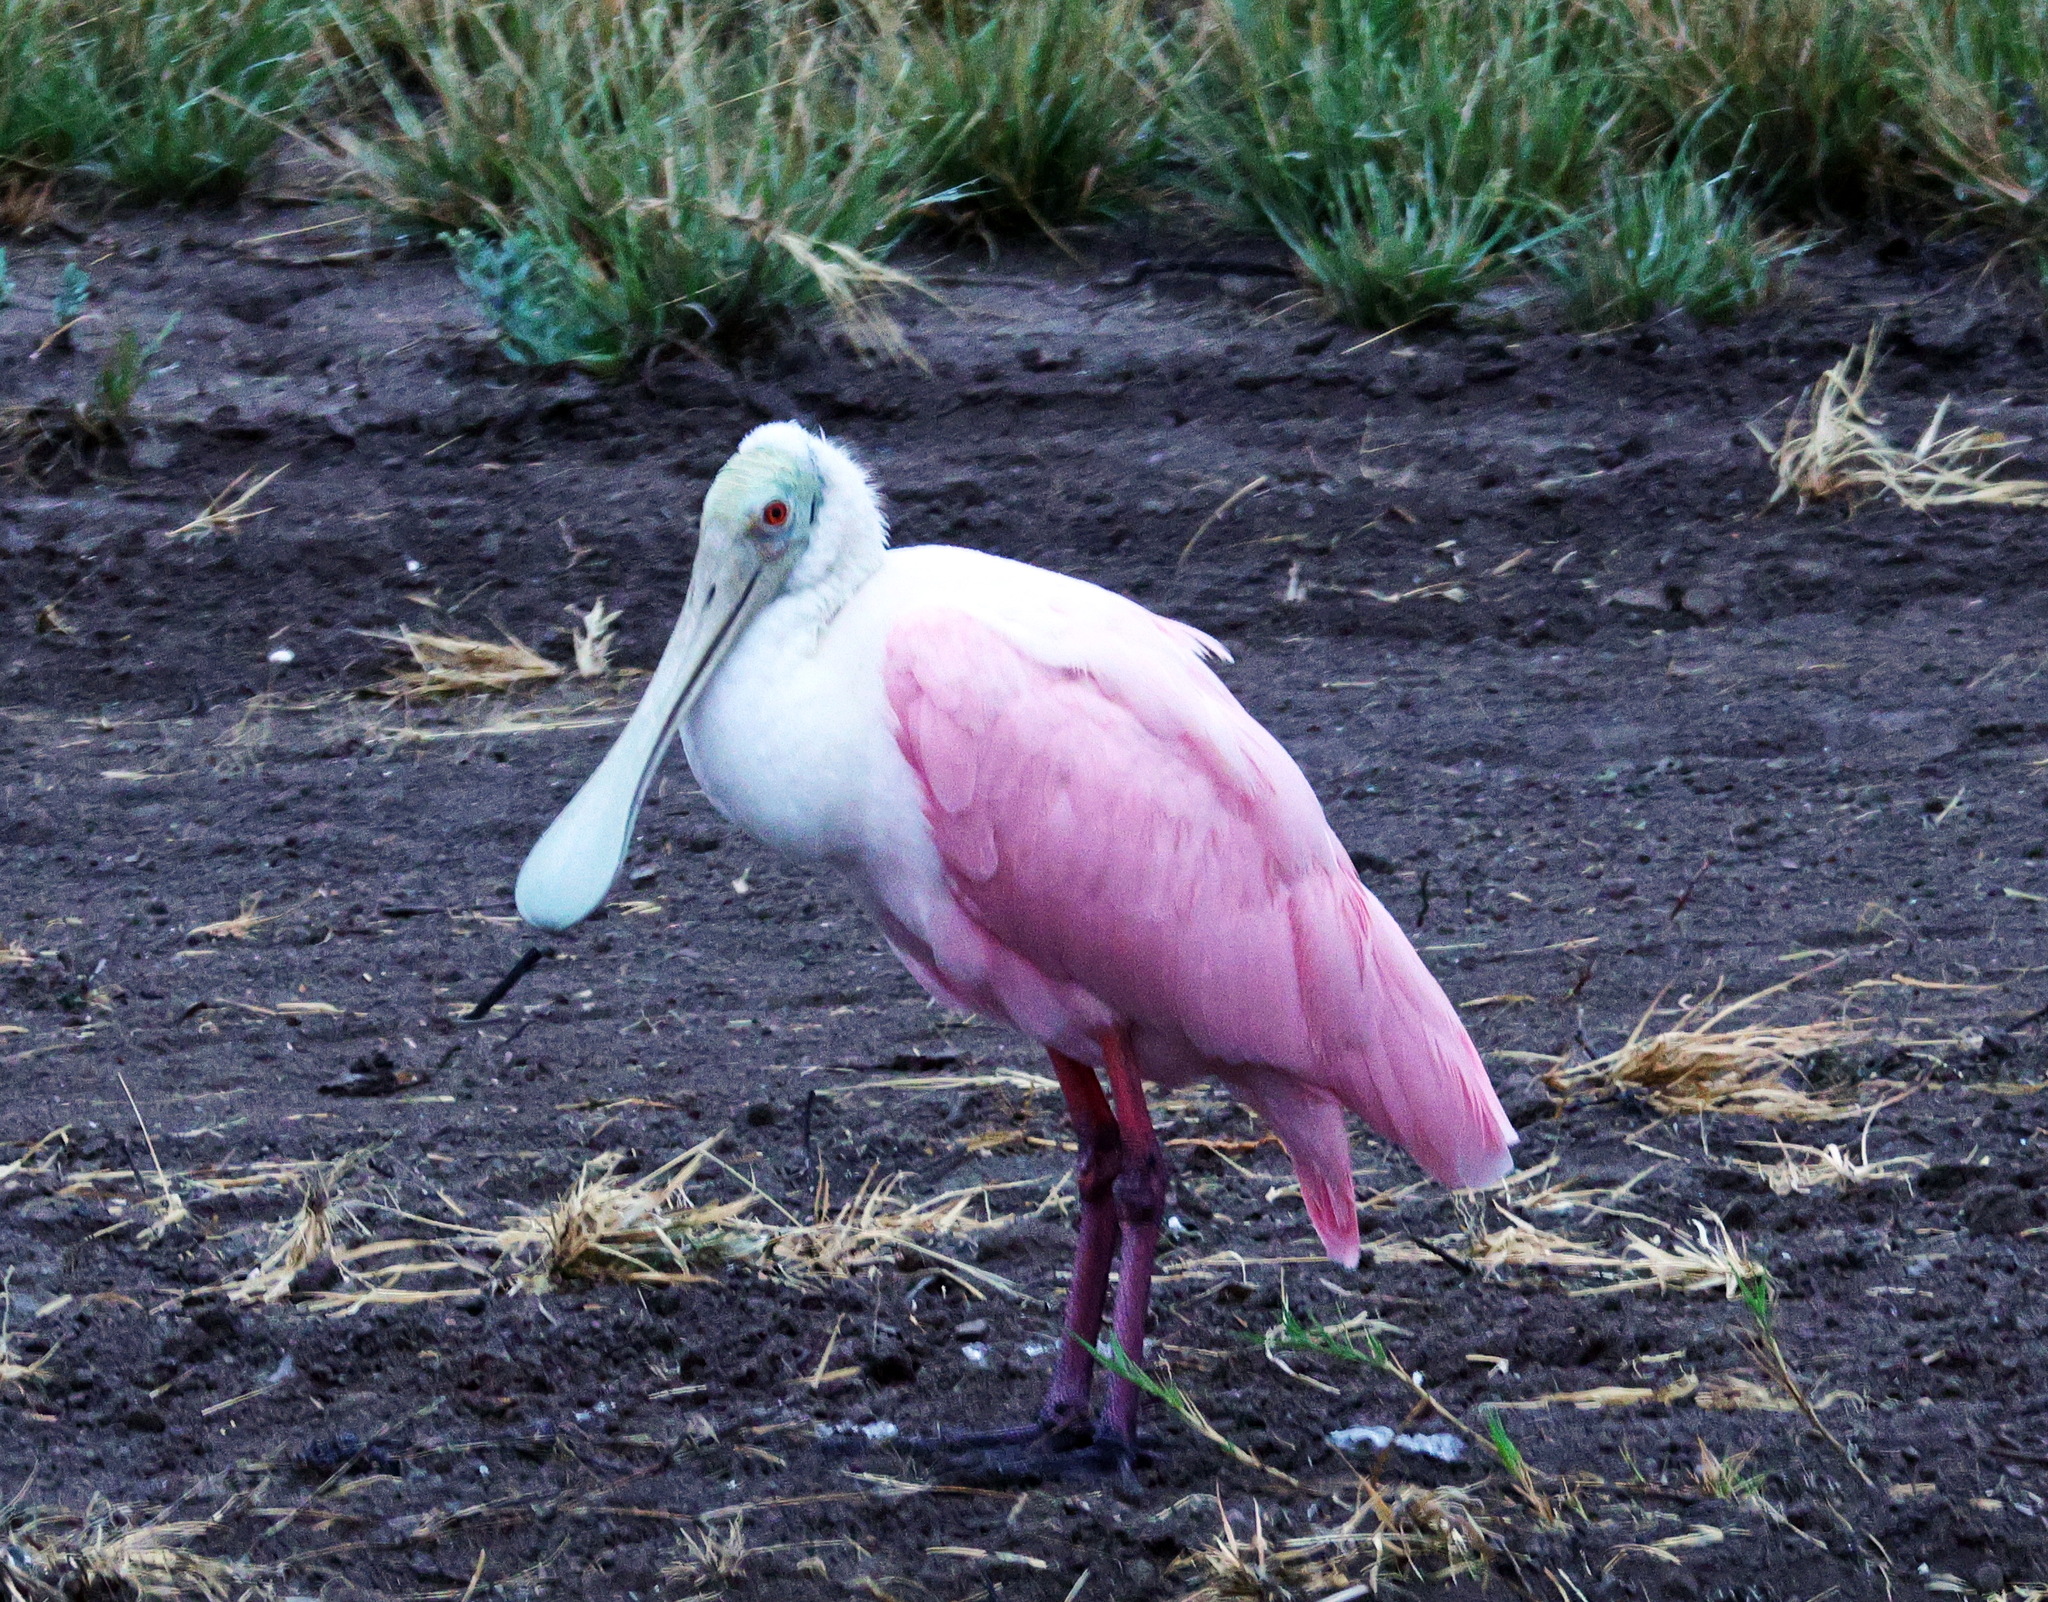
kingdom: Animalia
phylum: Chordata
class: Aves
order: Pelecaniformes
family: Threskiornithidae
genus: Platalea
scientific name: Platalea ajaja
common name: Roseate spoonbill
